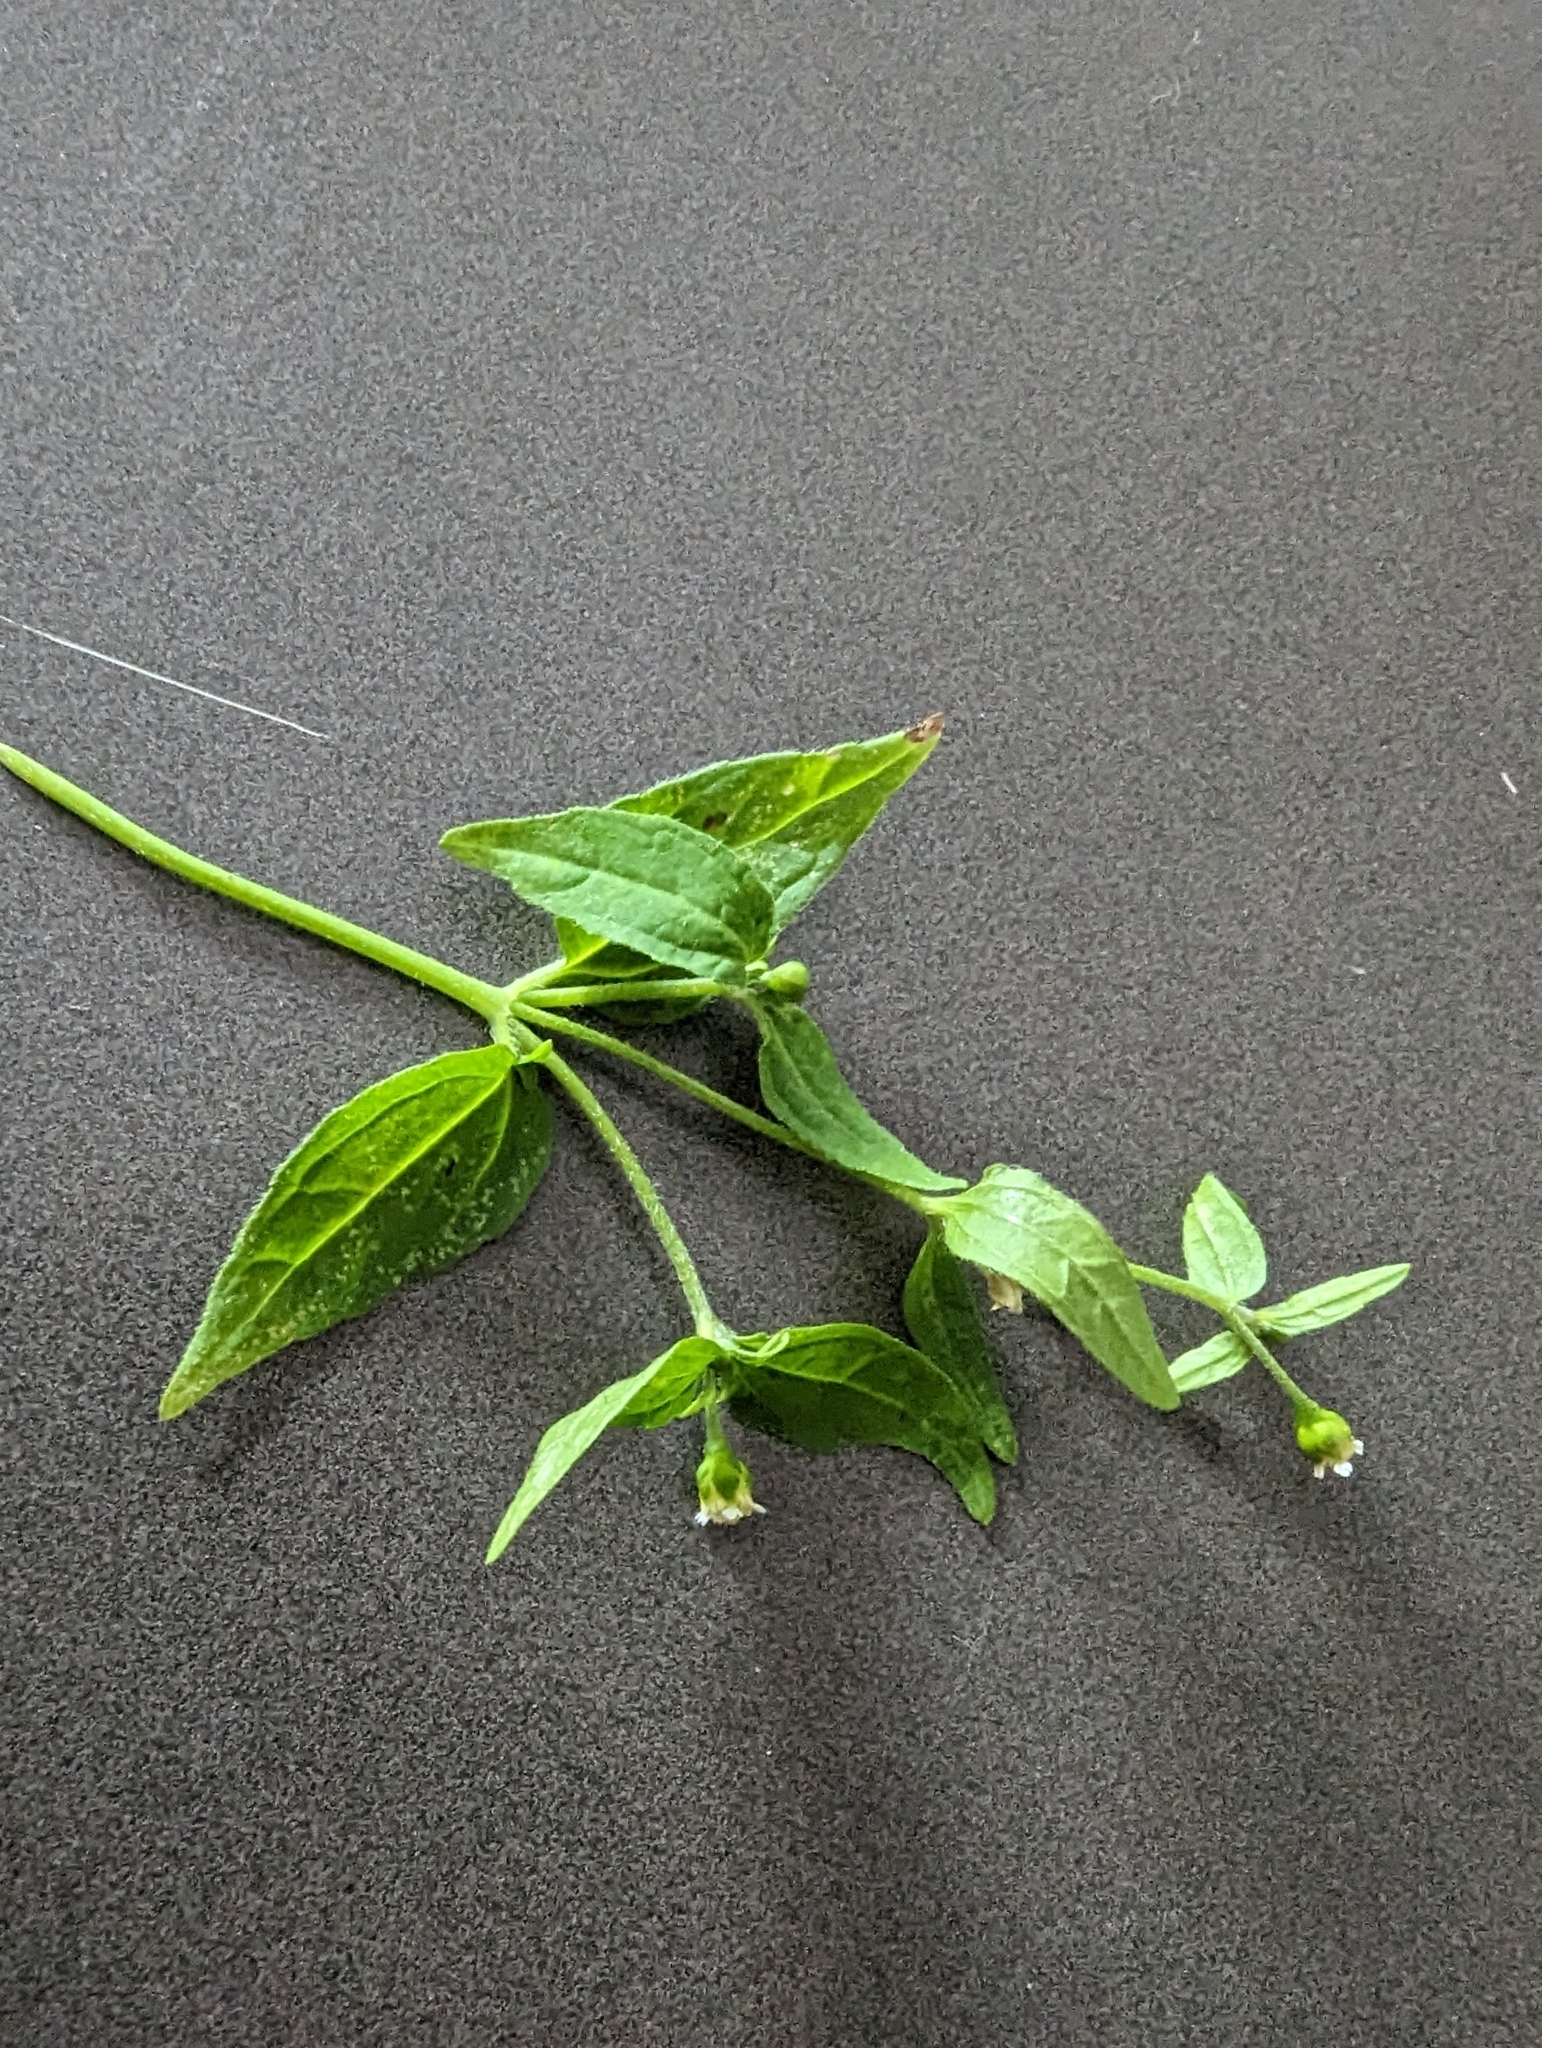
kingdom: Plantae
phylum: Tracheophyta
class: Magnoliopsida
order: Asterales
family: Asteraceae
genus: Galinsoga
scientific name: Galinsoga parviflora
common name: Gallant soldier
